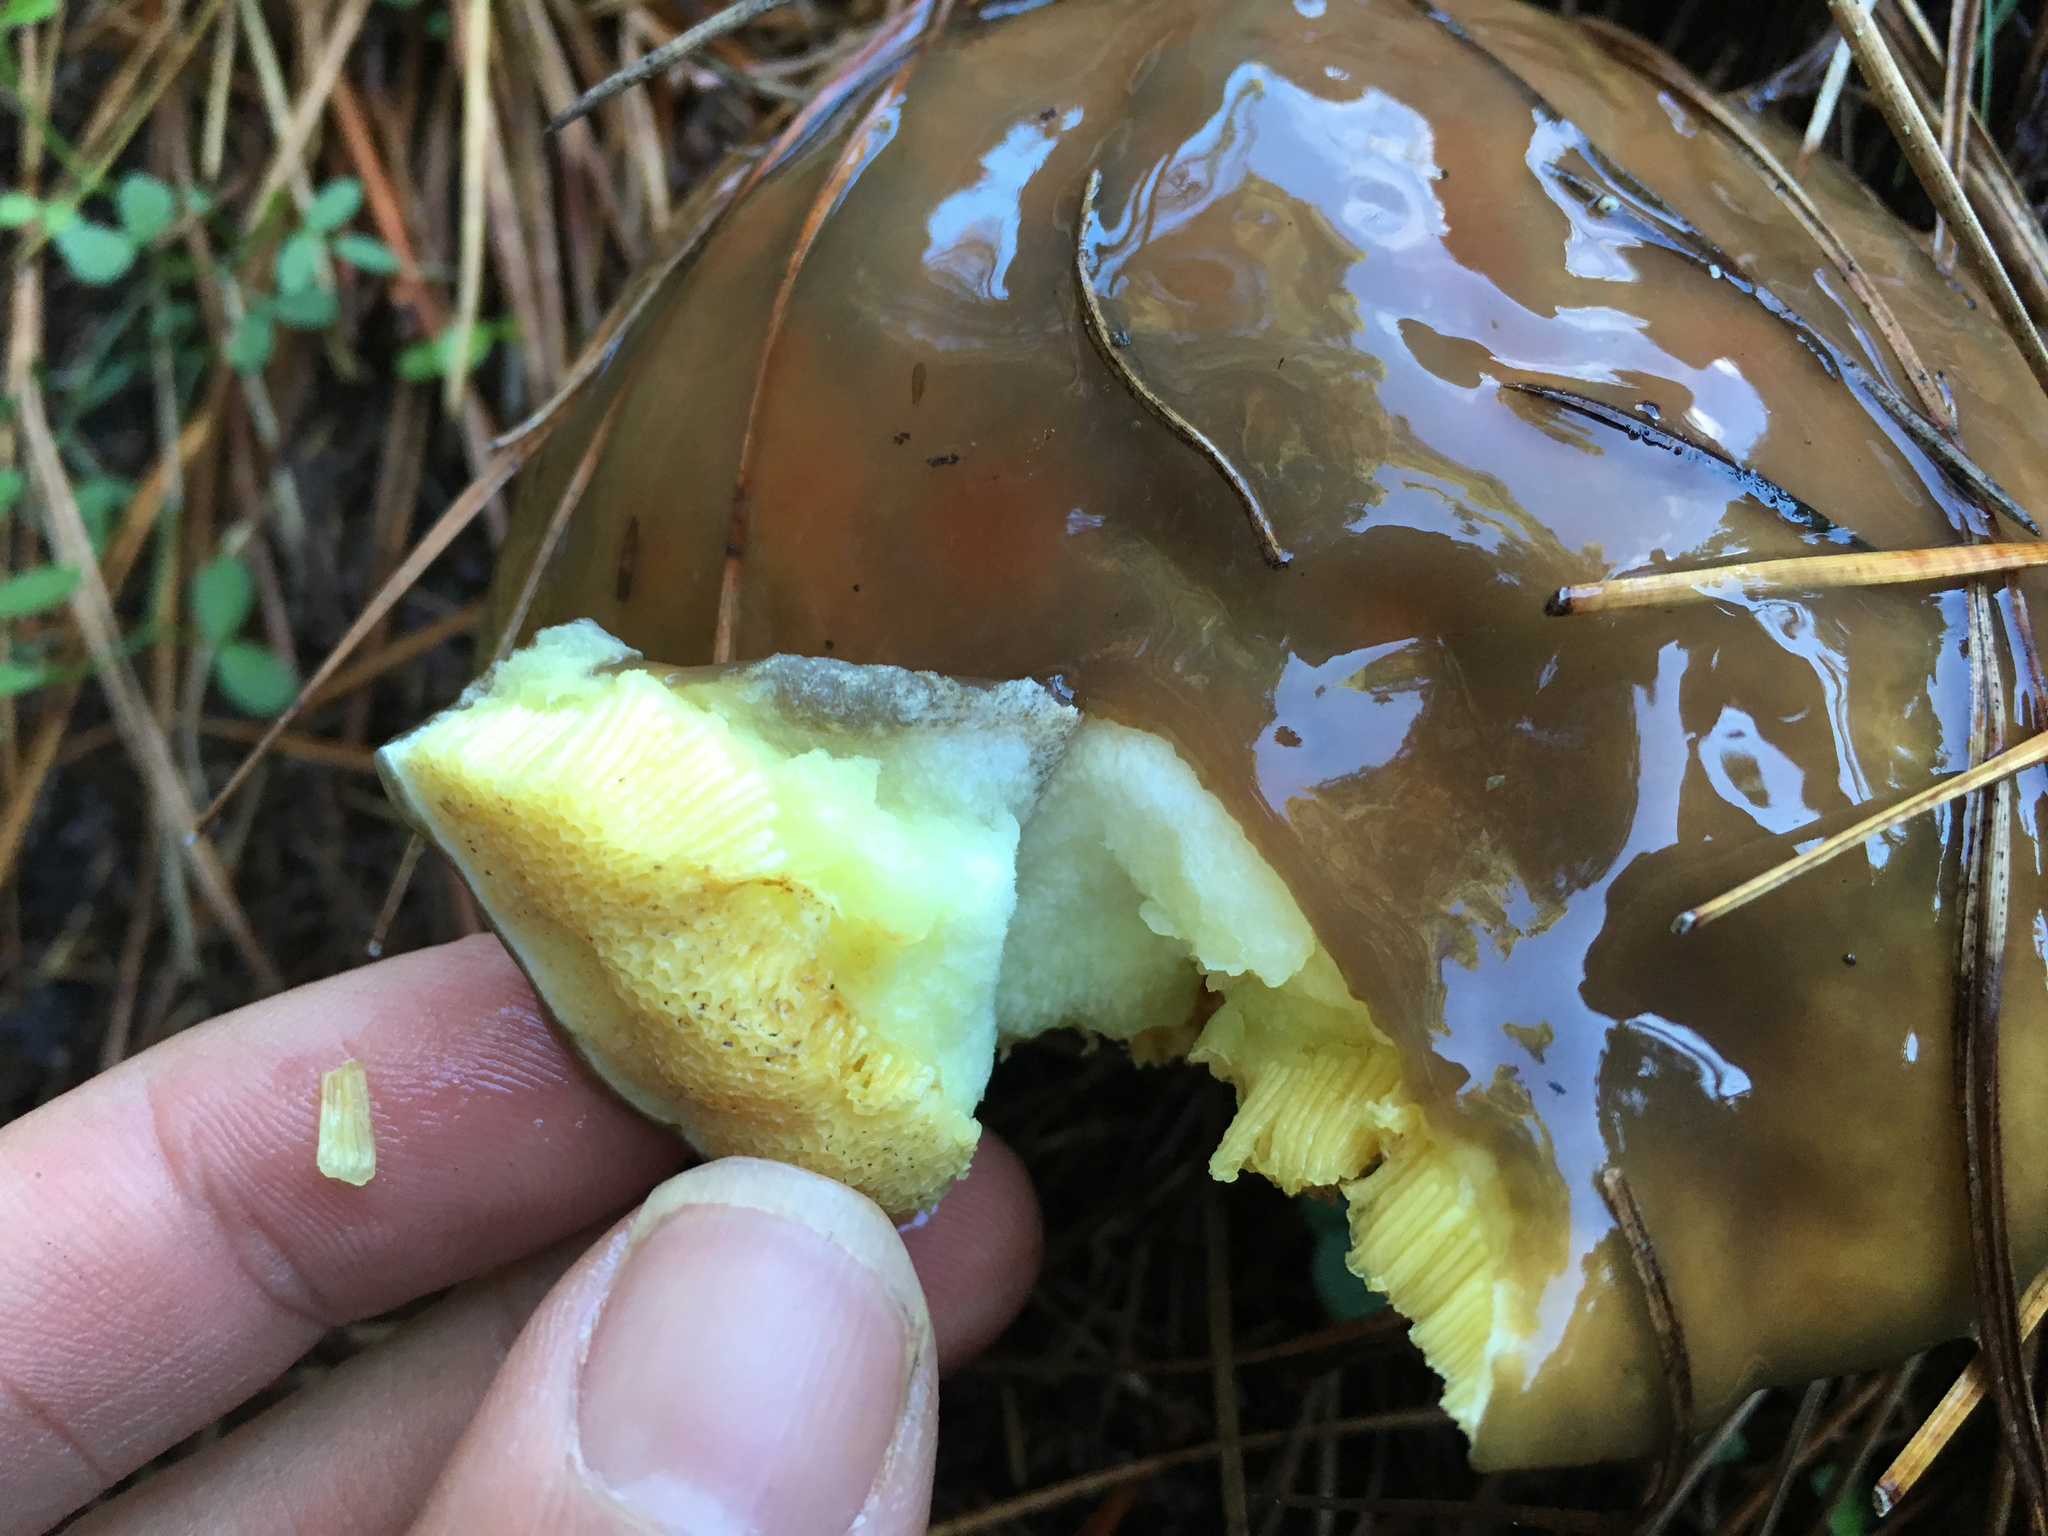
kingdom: Fungi
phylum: Basidiomycota
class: Agaricomycetes
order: Boletales
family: Suillaceae
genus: Suillus
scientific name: Suillus granulatus
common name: Weeping bolete
